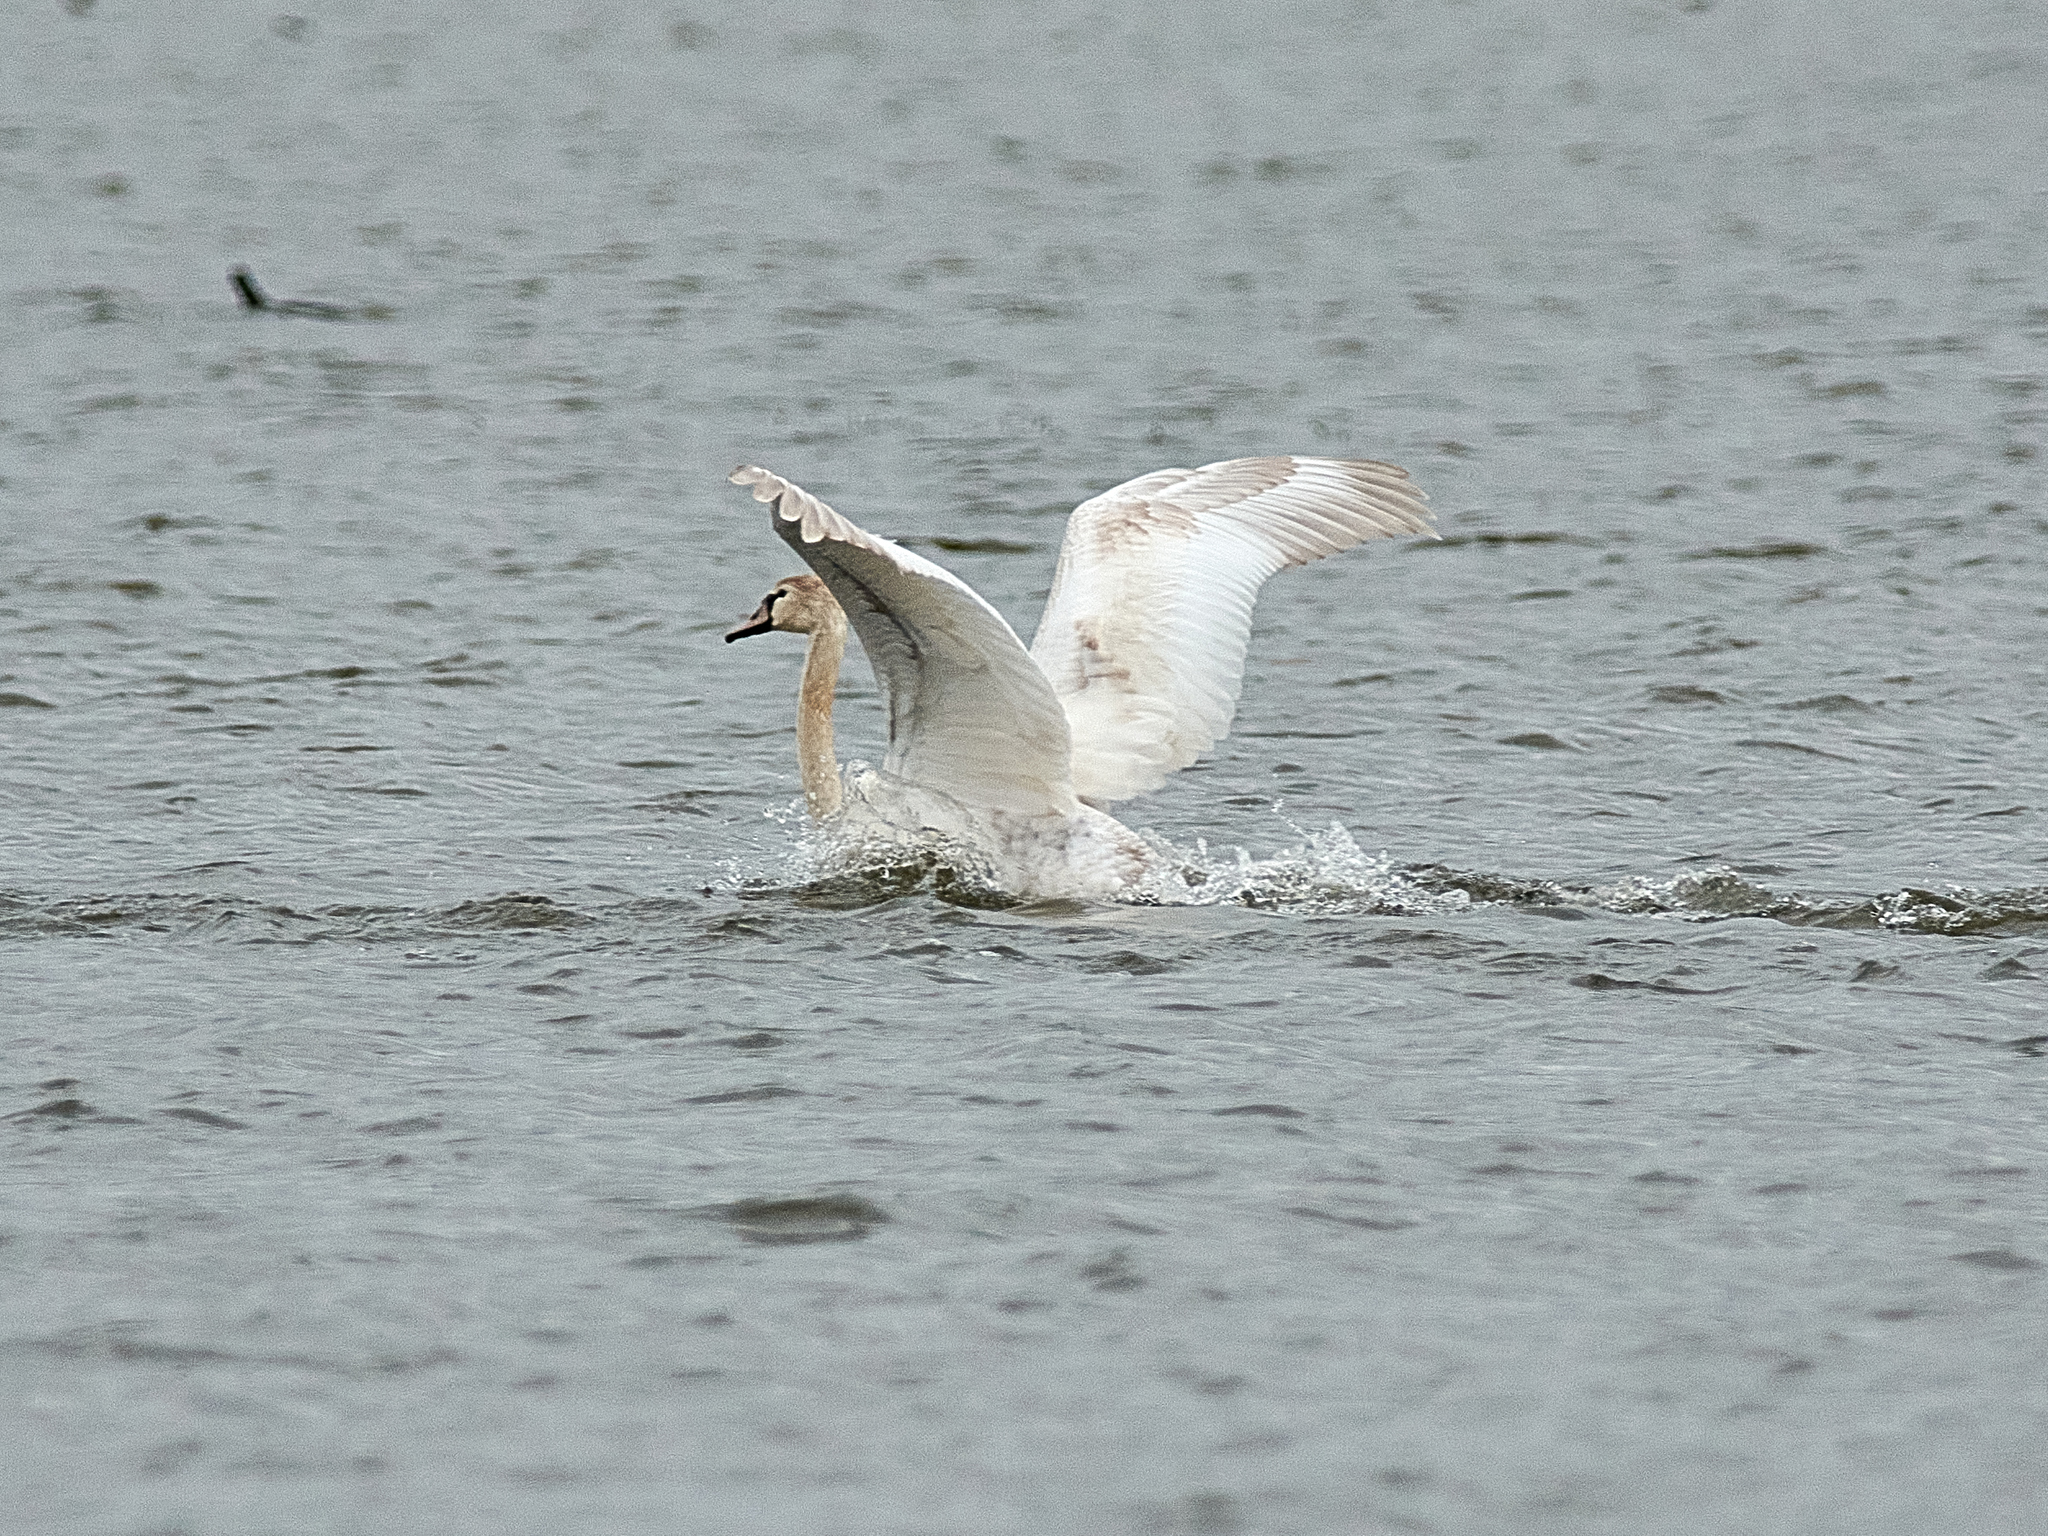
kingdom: Animalia
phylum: Chordata
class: Aves
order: Anseriformes
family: Anatidae
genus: Cygnus
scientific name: Cygnus olor
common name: Mute swan
